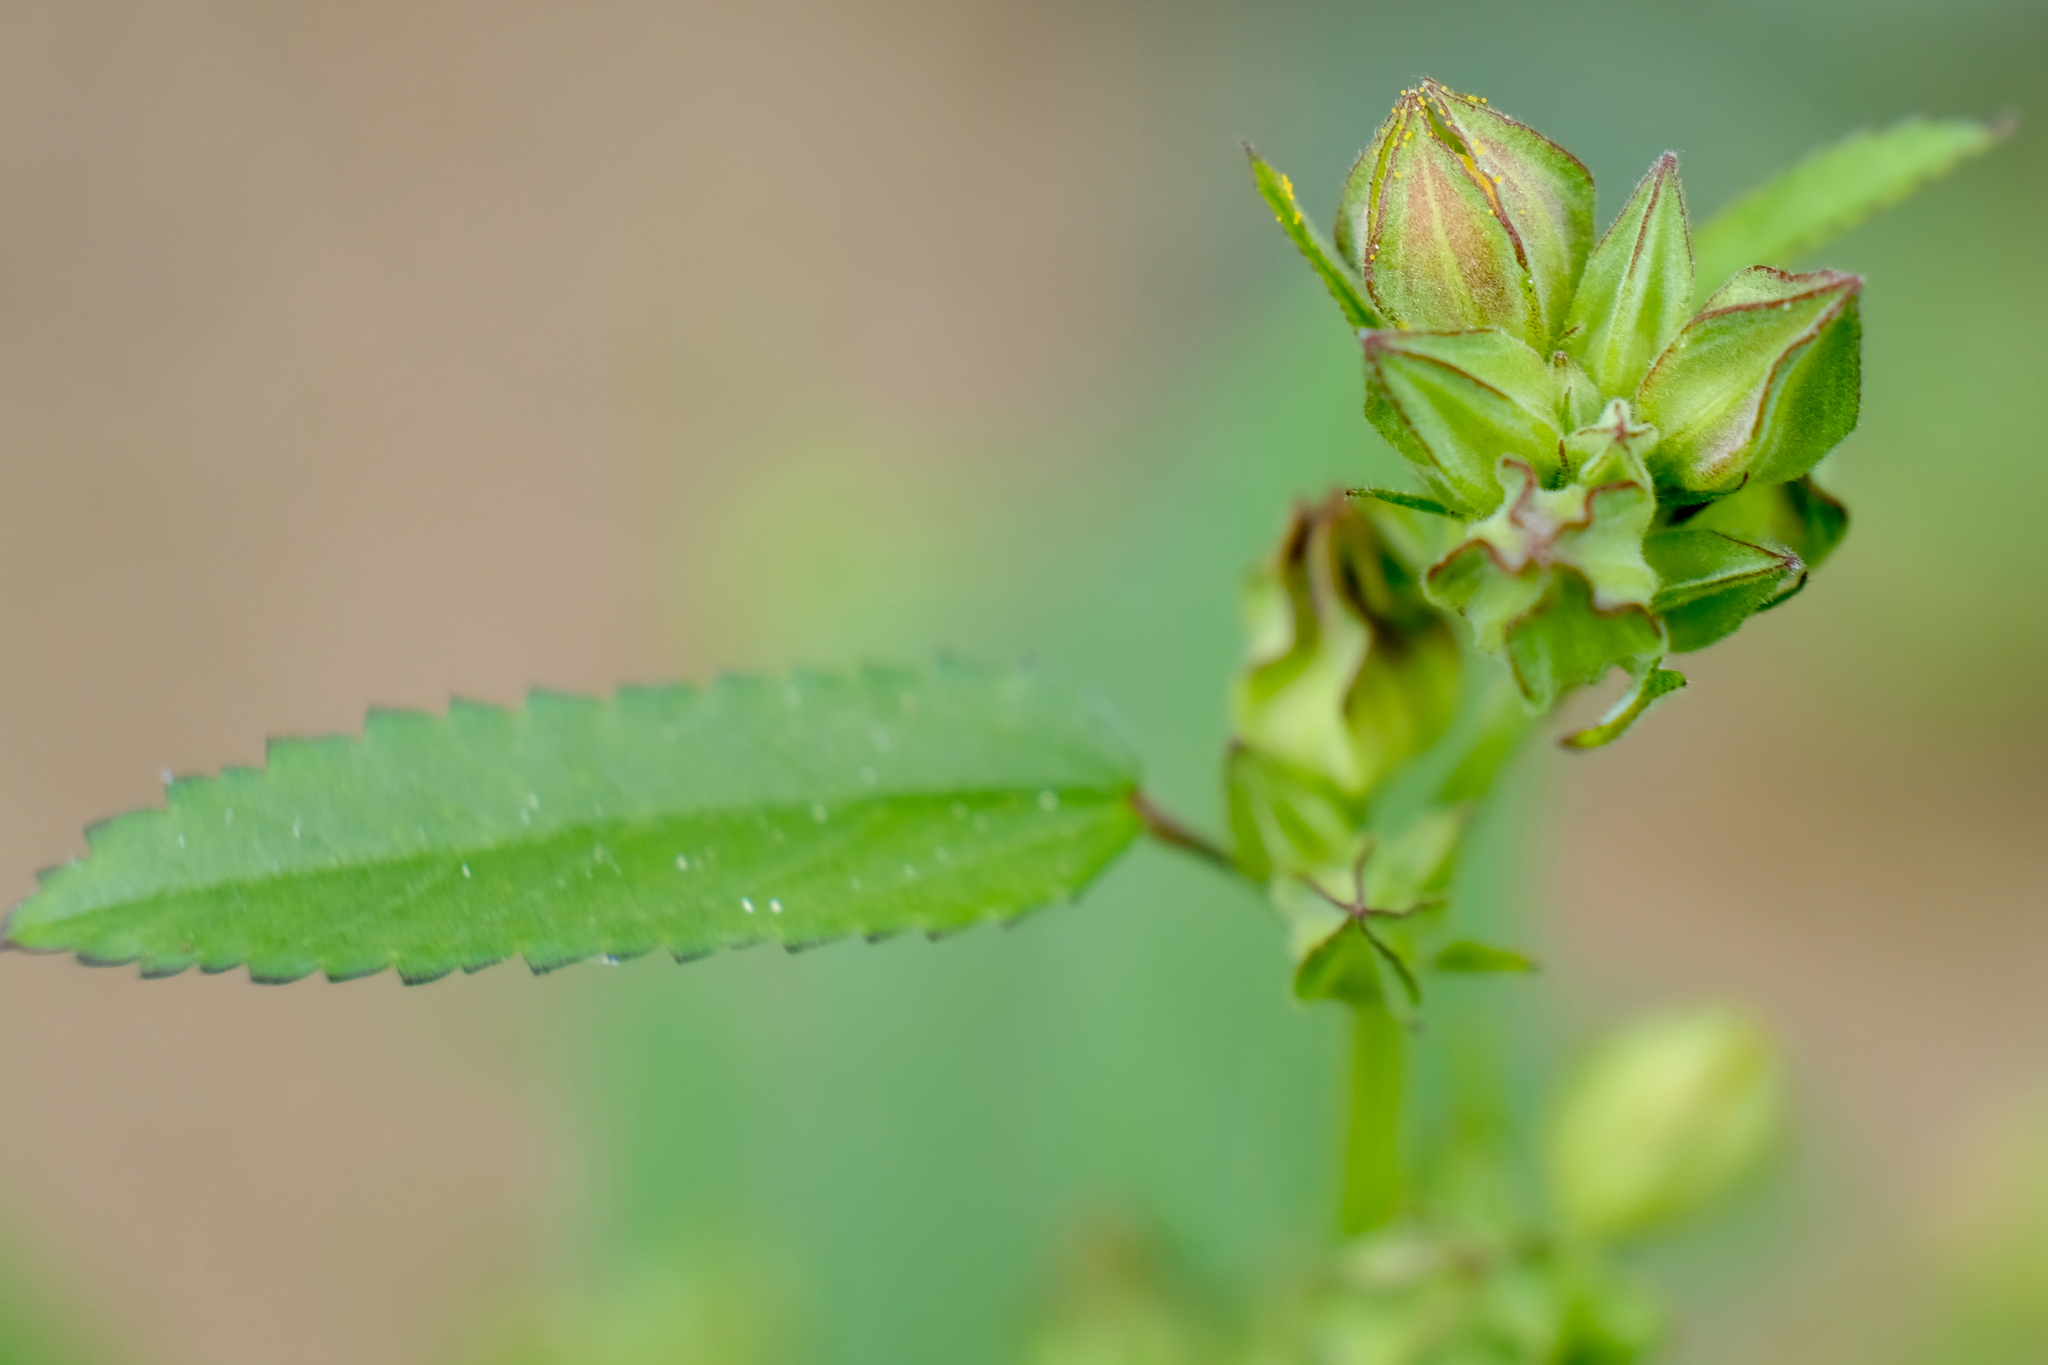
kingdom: Plantae
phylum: Tracheophyta
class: Magnoliopsida
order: Malvales
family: Malvaceae
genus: Sida
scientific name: Sida spinosa
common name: Prickly fanpetals
